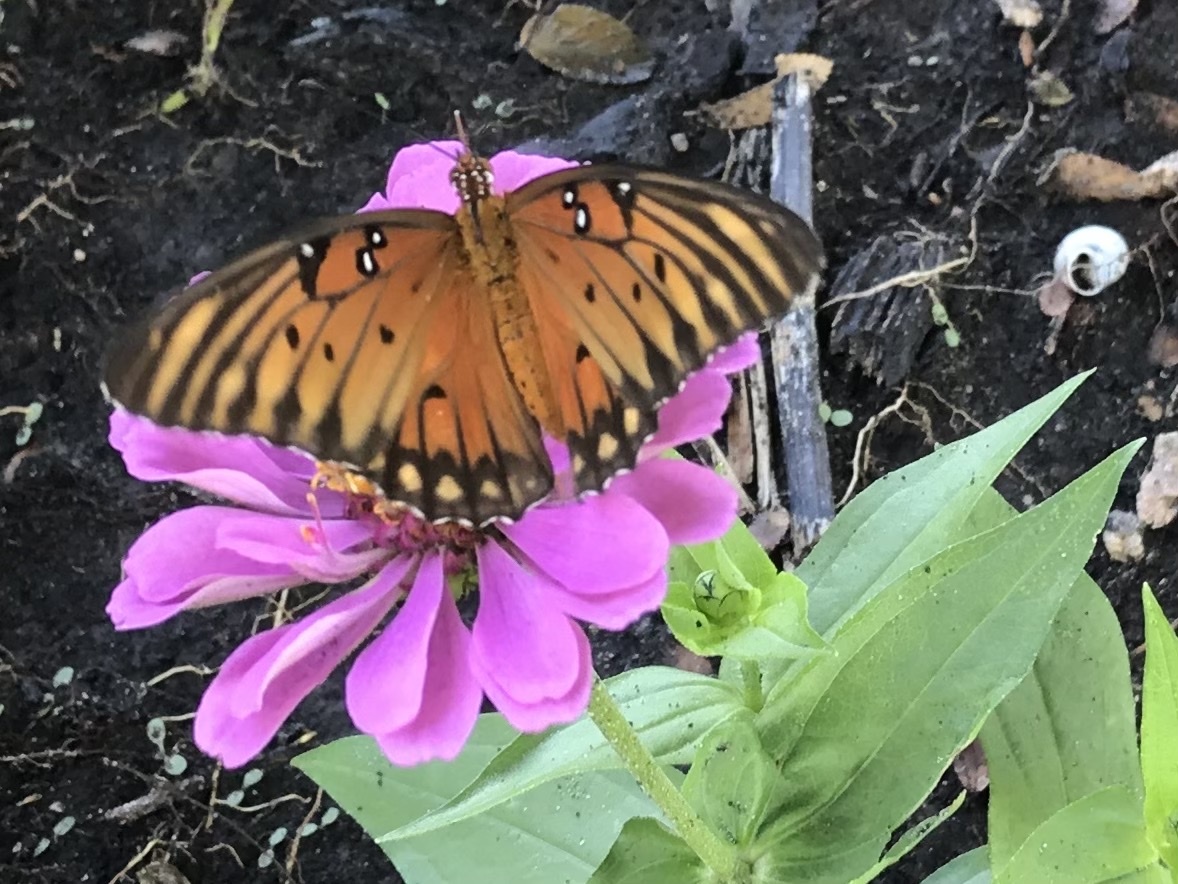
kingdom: Animalia
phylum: Arthropoda
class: Insecta
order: Lepidoptera
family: Nymphalidae
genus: Dione
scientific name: Dione vanillae
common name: Gulf fritillary
